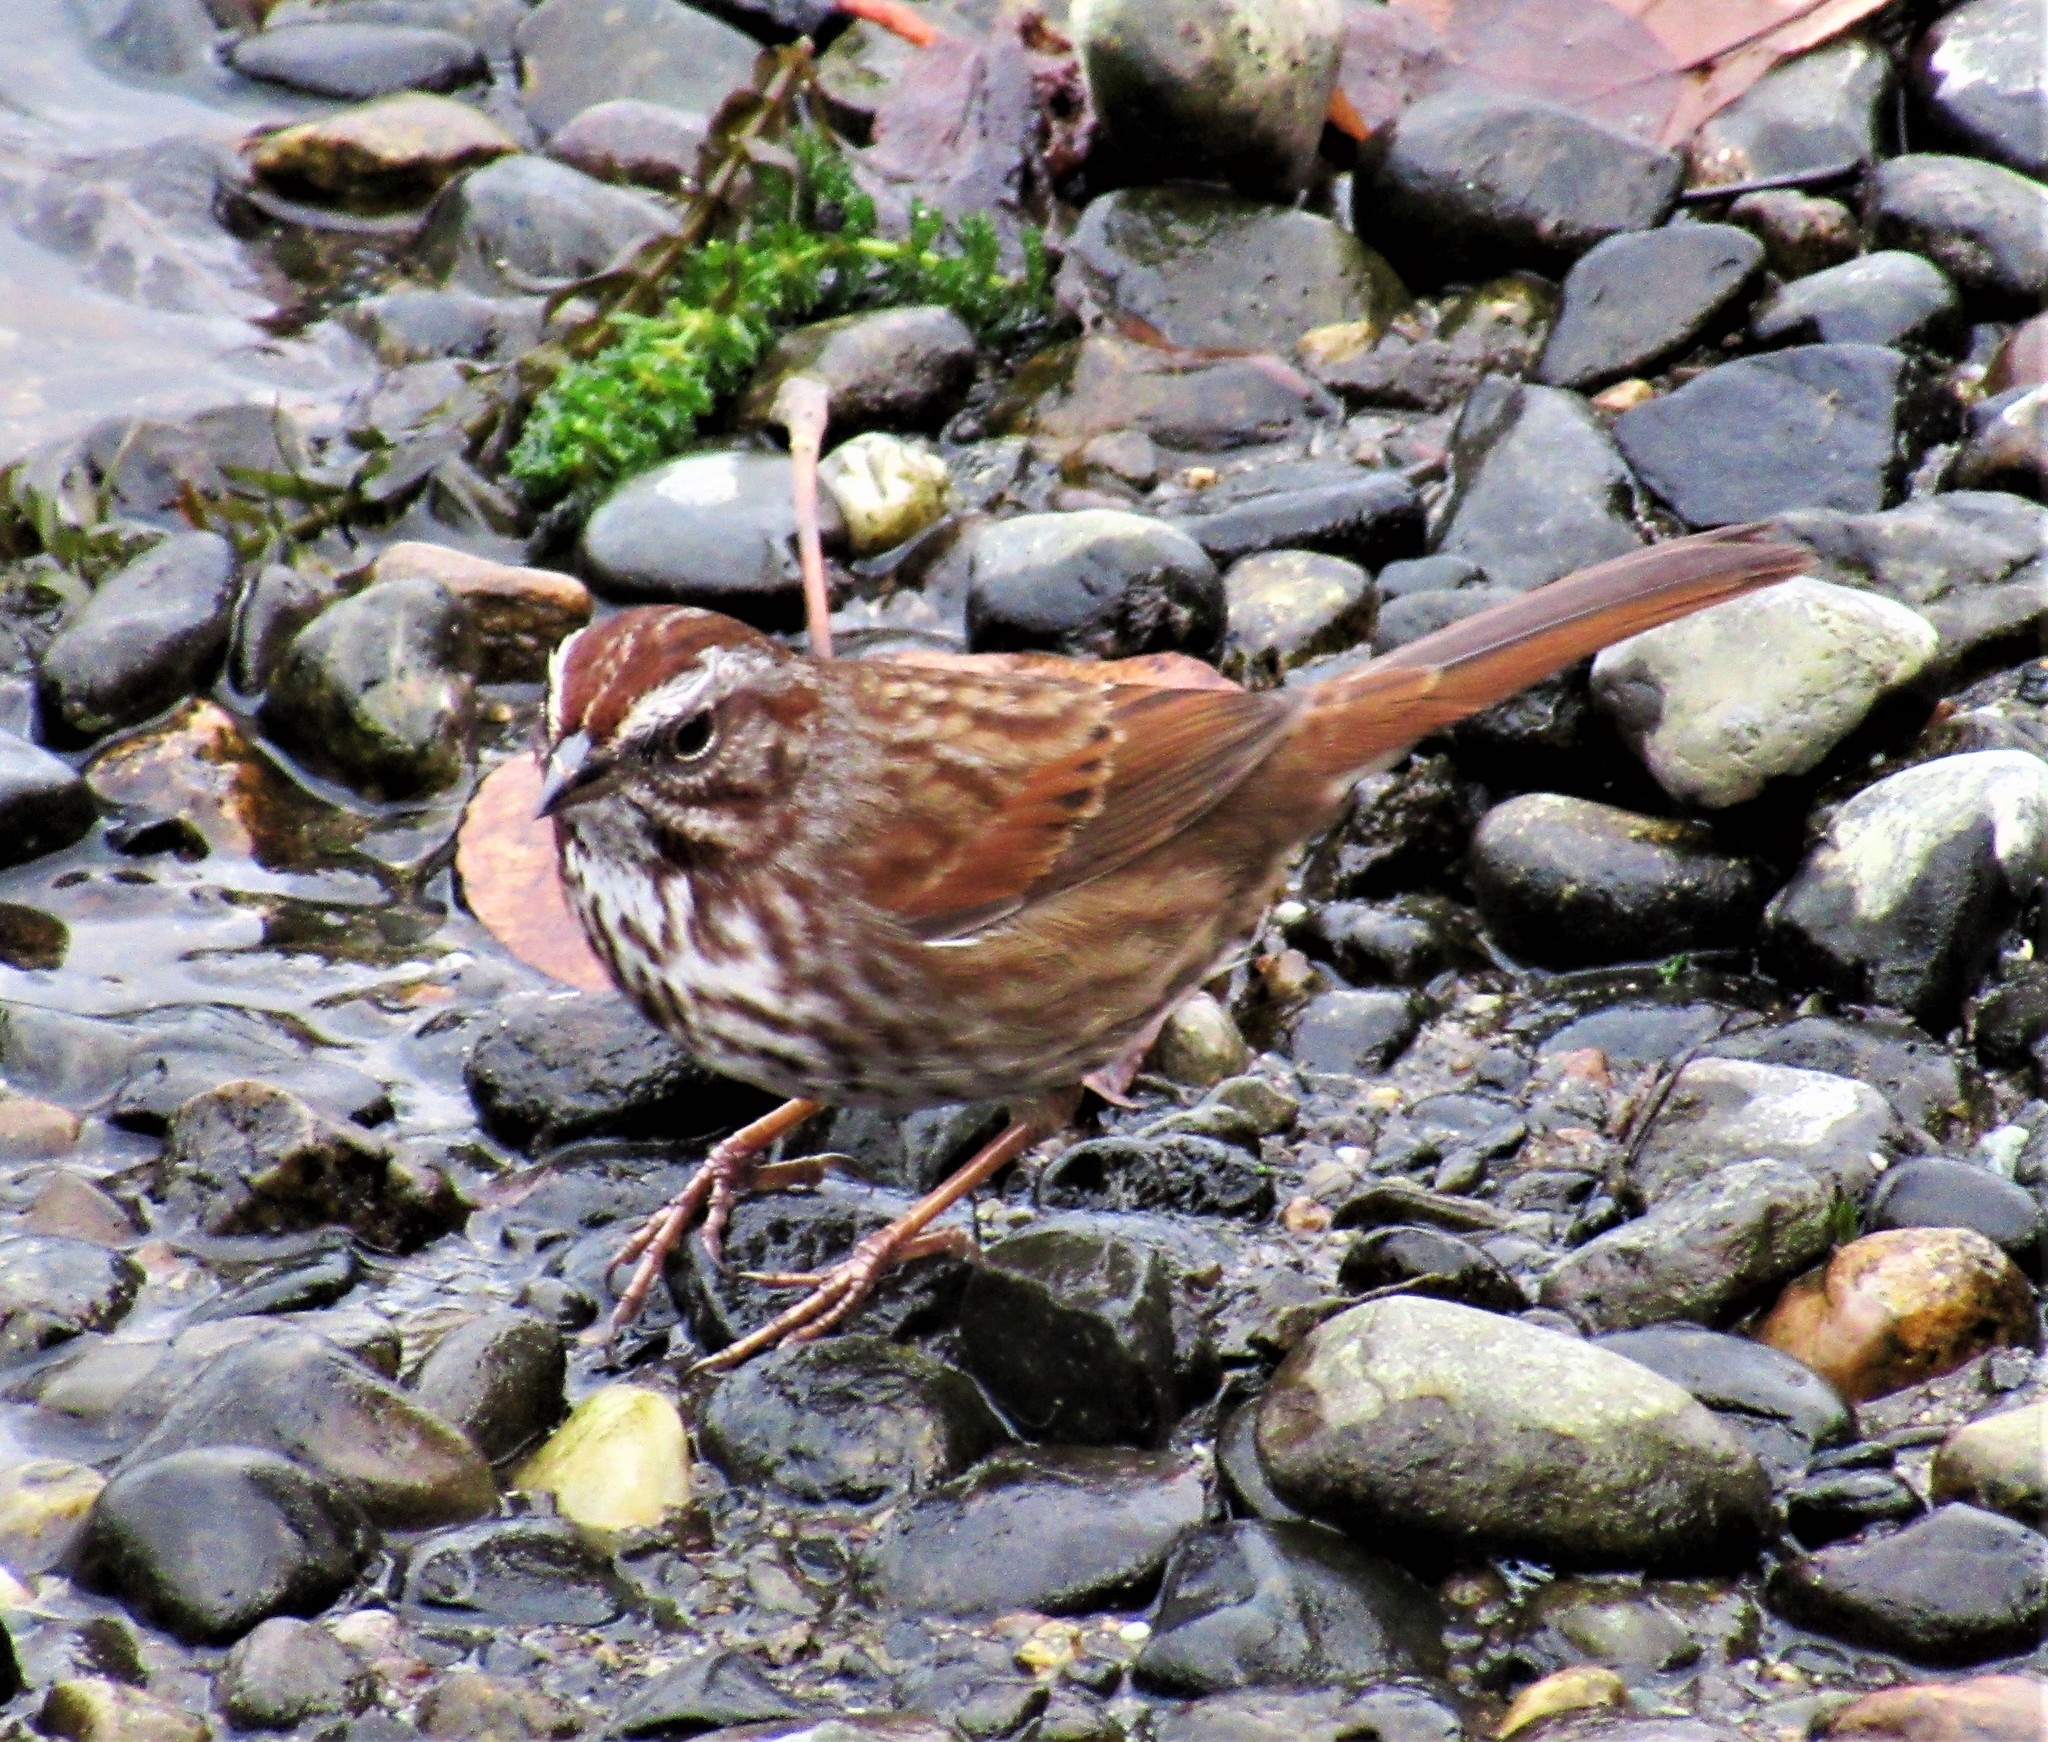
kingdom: Animalia
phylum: Chordata
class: Aves
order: Passeriformes
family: Passerellidae
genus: Melospiza
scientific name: Melospiza melodia
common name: Song sparrow
